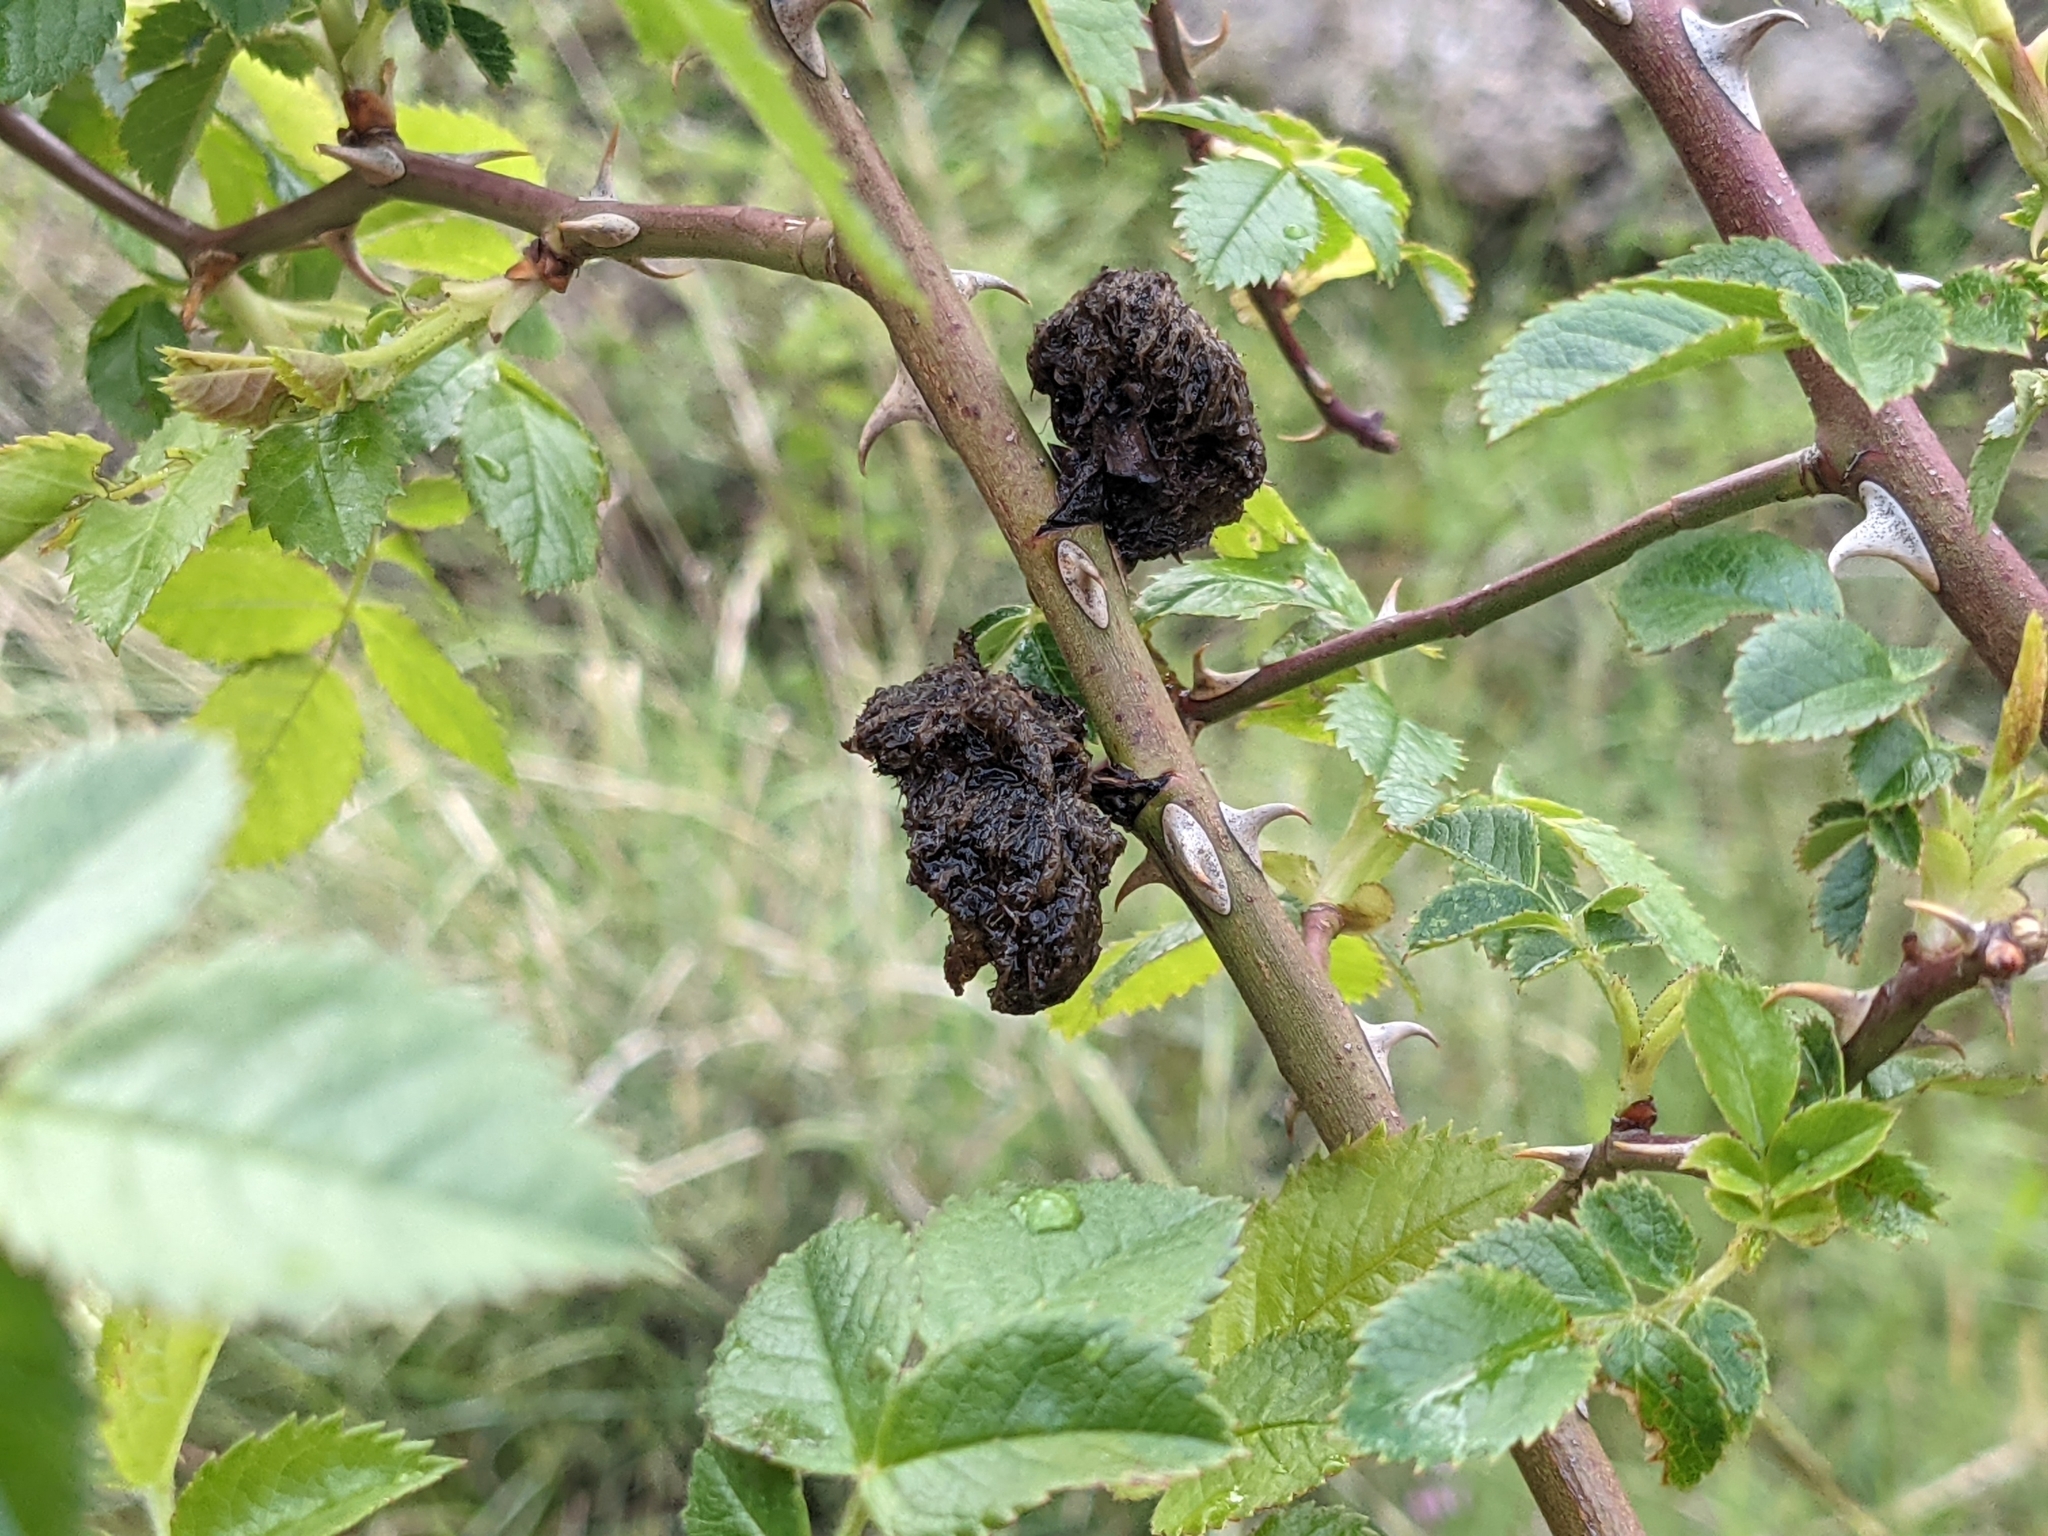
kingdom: Animalia
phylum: Arthropoda
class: Insecta
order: Hymenoptera
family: Cynipidae
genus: Diplolepis
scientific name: Diplolepis rosae
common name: Bedeguar gall
